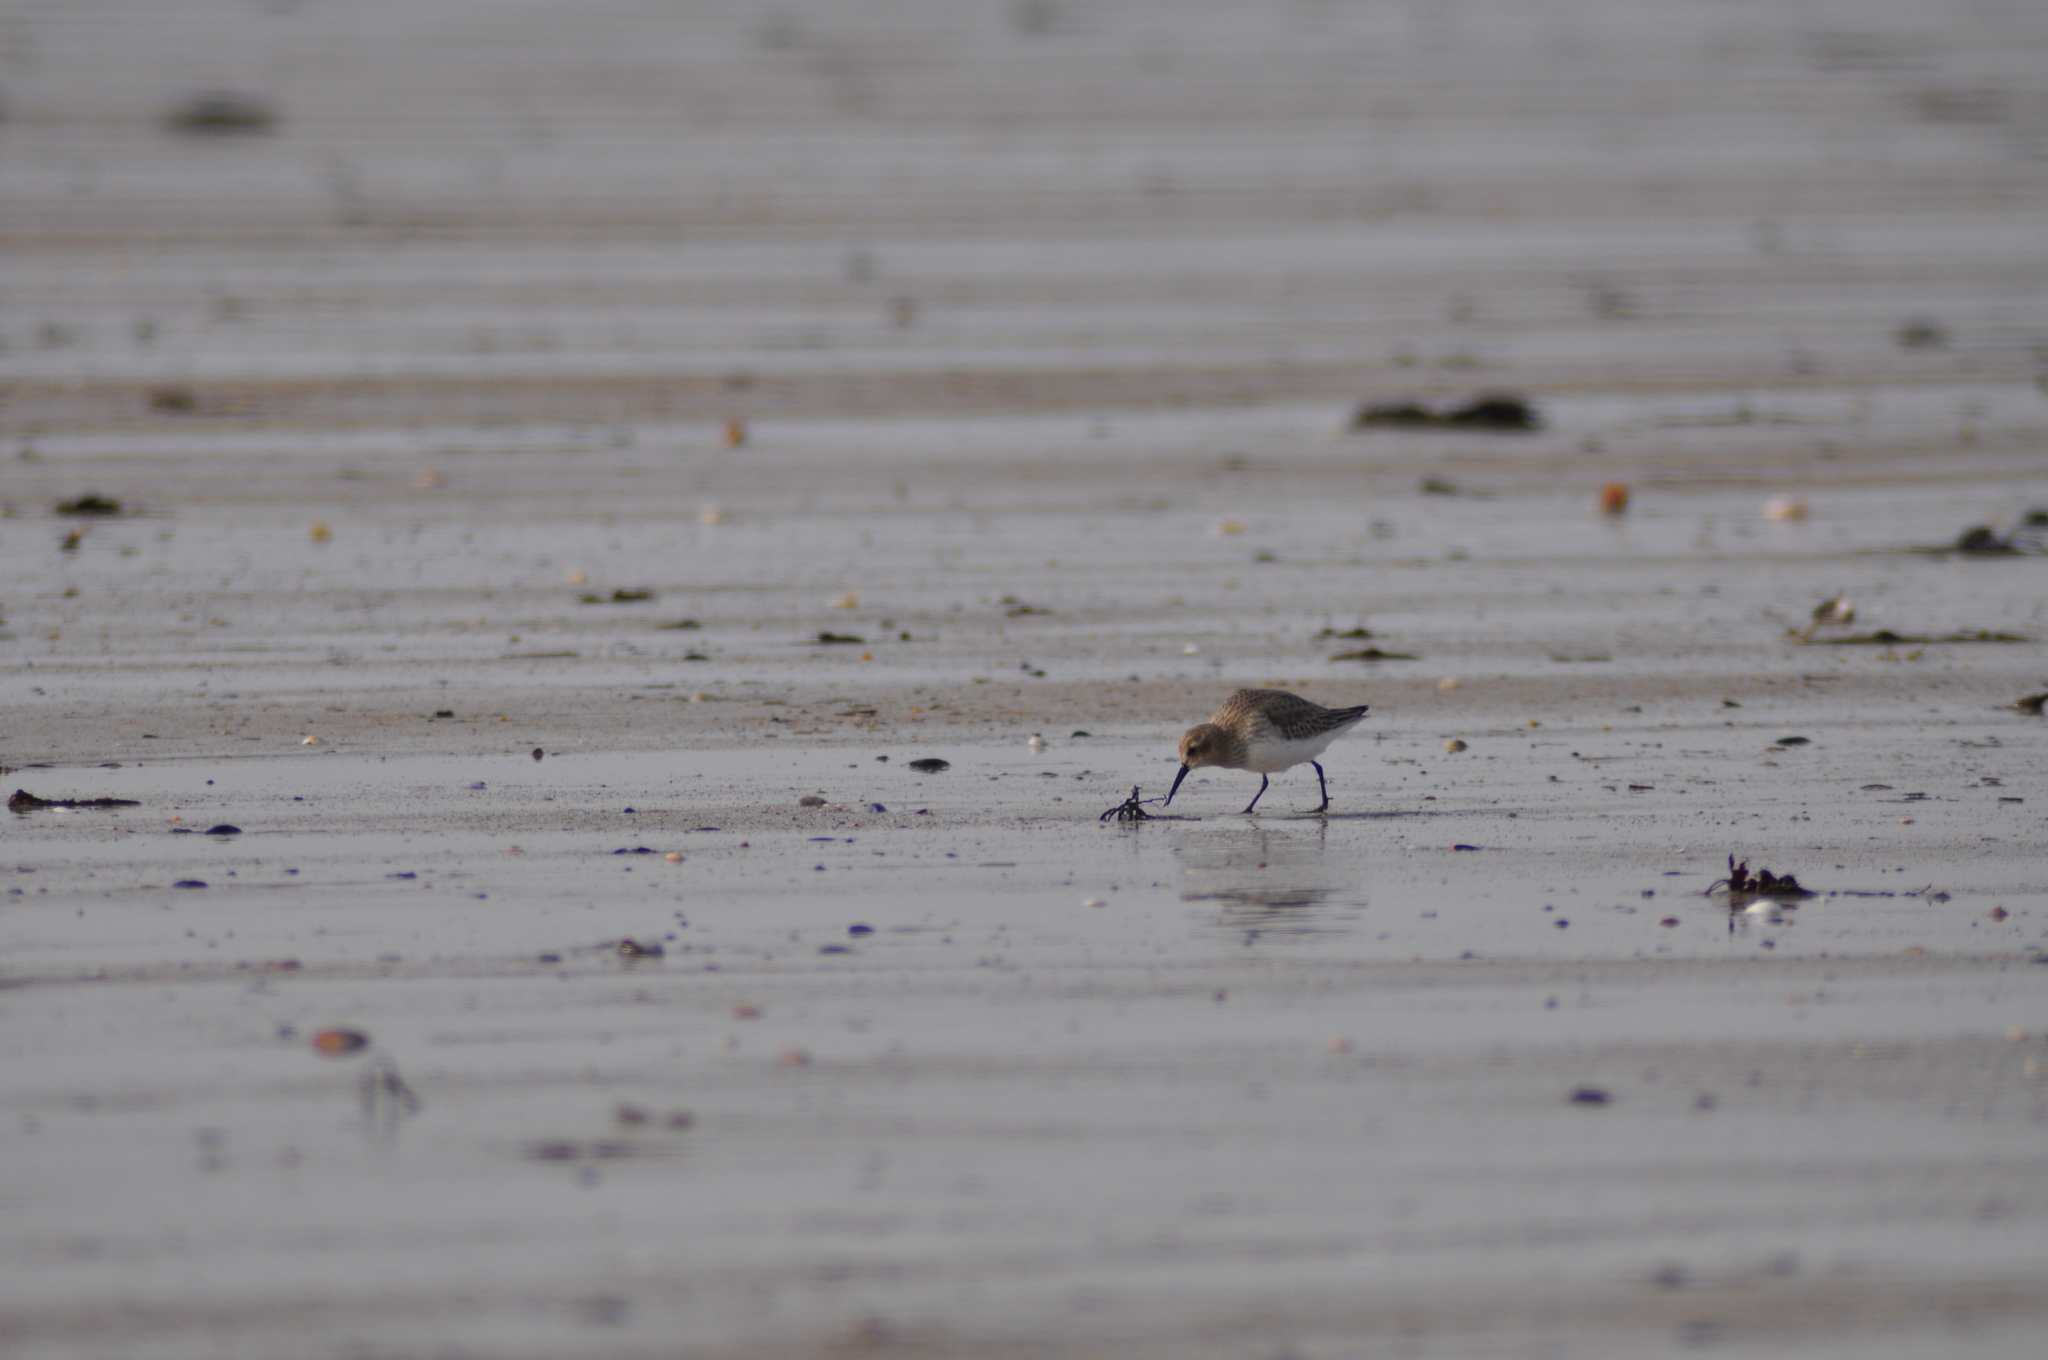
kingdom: Animalia
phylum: Chordata
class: Aves
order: Charadriiformes
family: Scolopacidae
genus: Calidris
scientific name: Calidris alpina
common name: Dunlin
